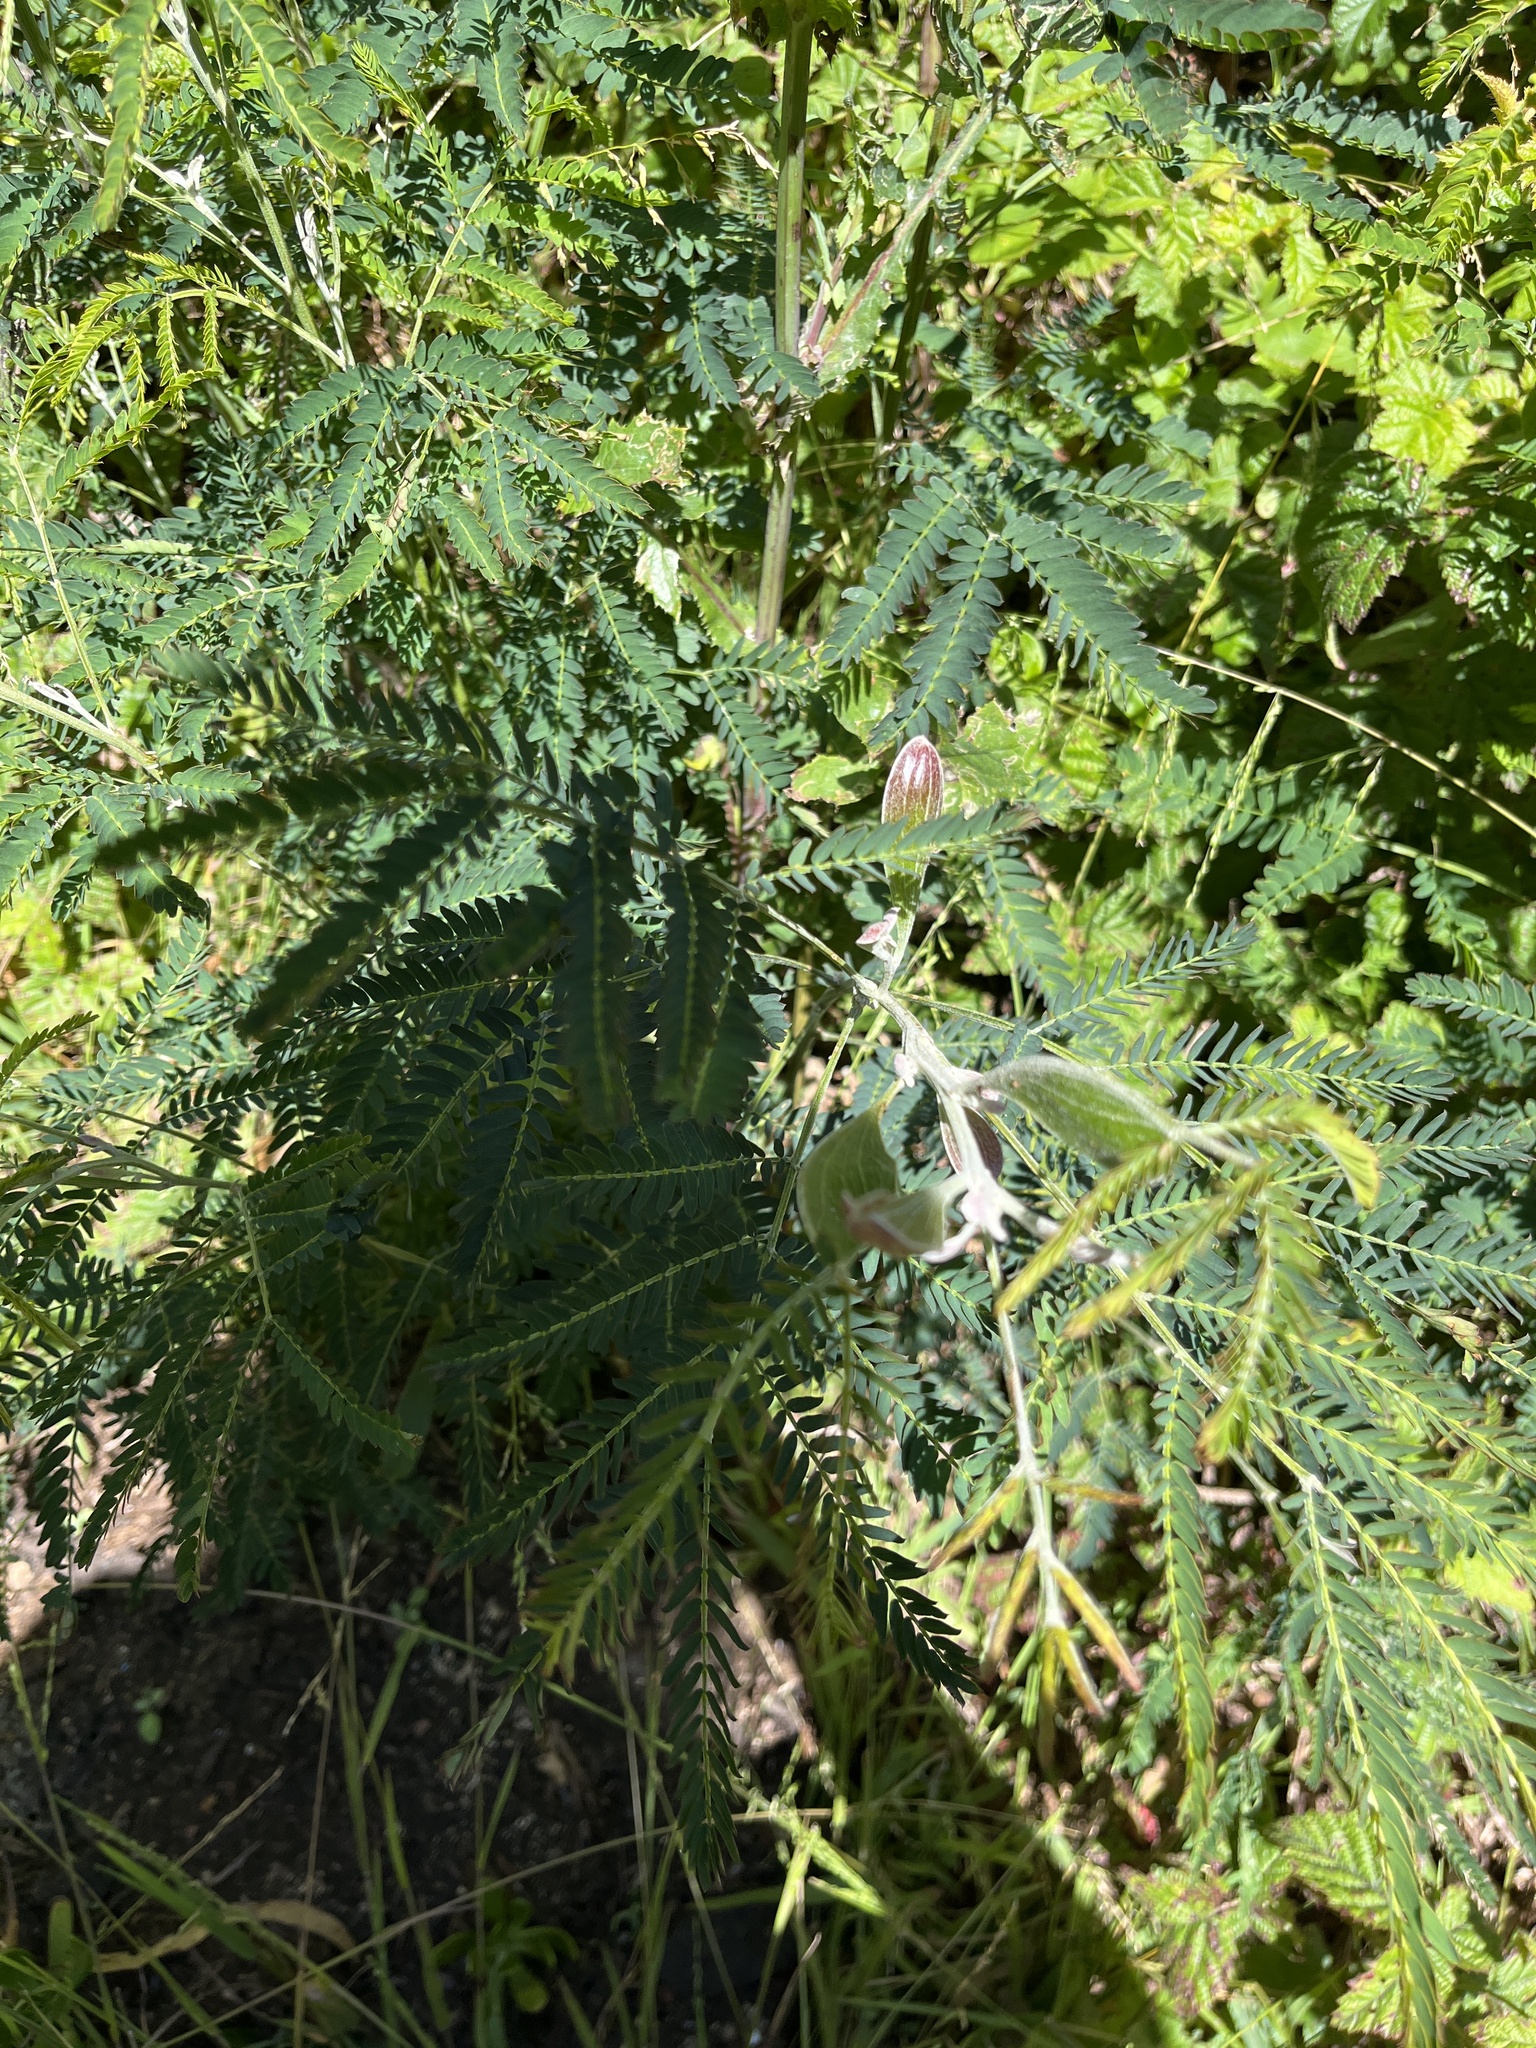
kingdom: Plantae
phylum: Tracheophyta
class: Magnoliopsida
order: Fabales
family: Fabaceae
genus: Acacia
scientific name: Acacia melanoxylon
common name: Blackwood
